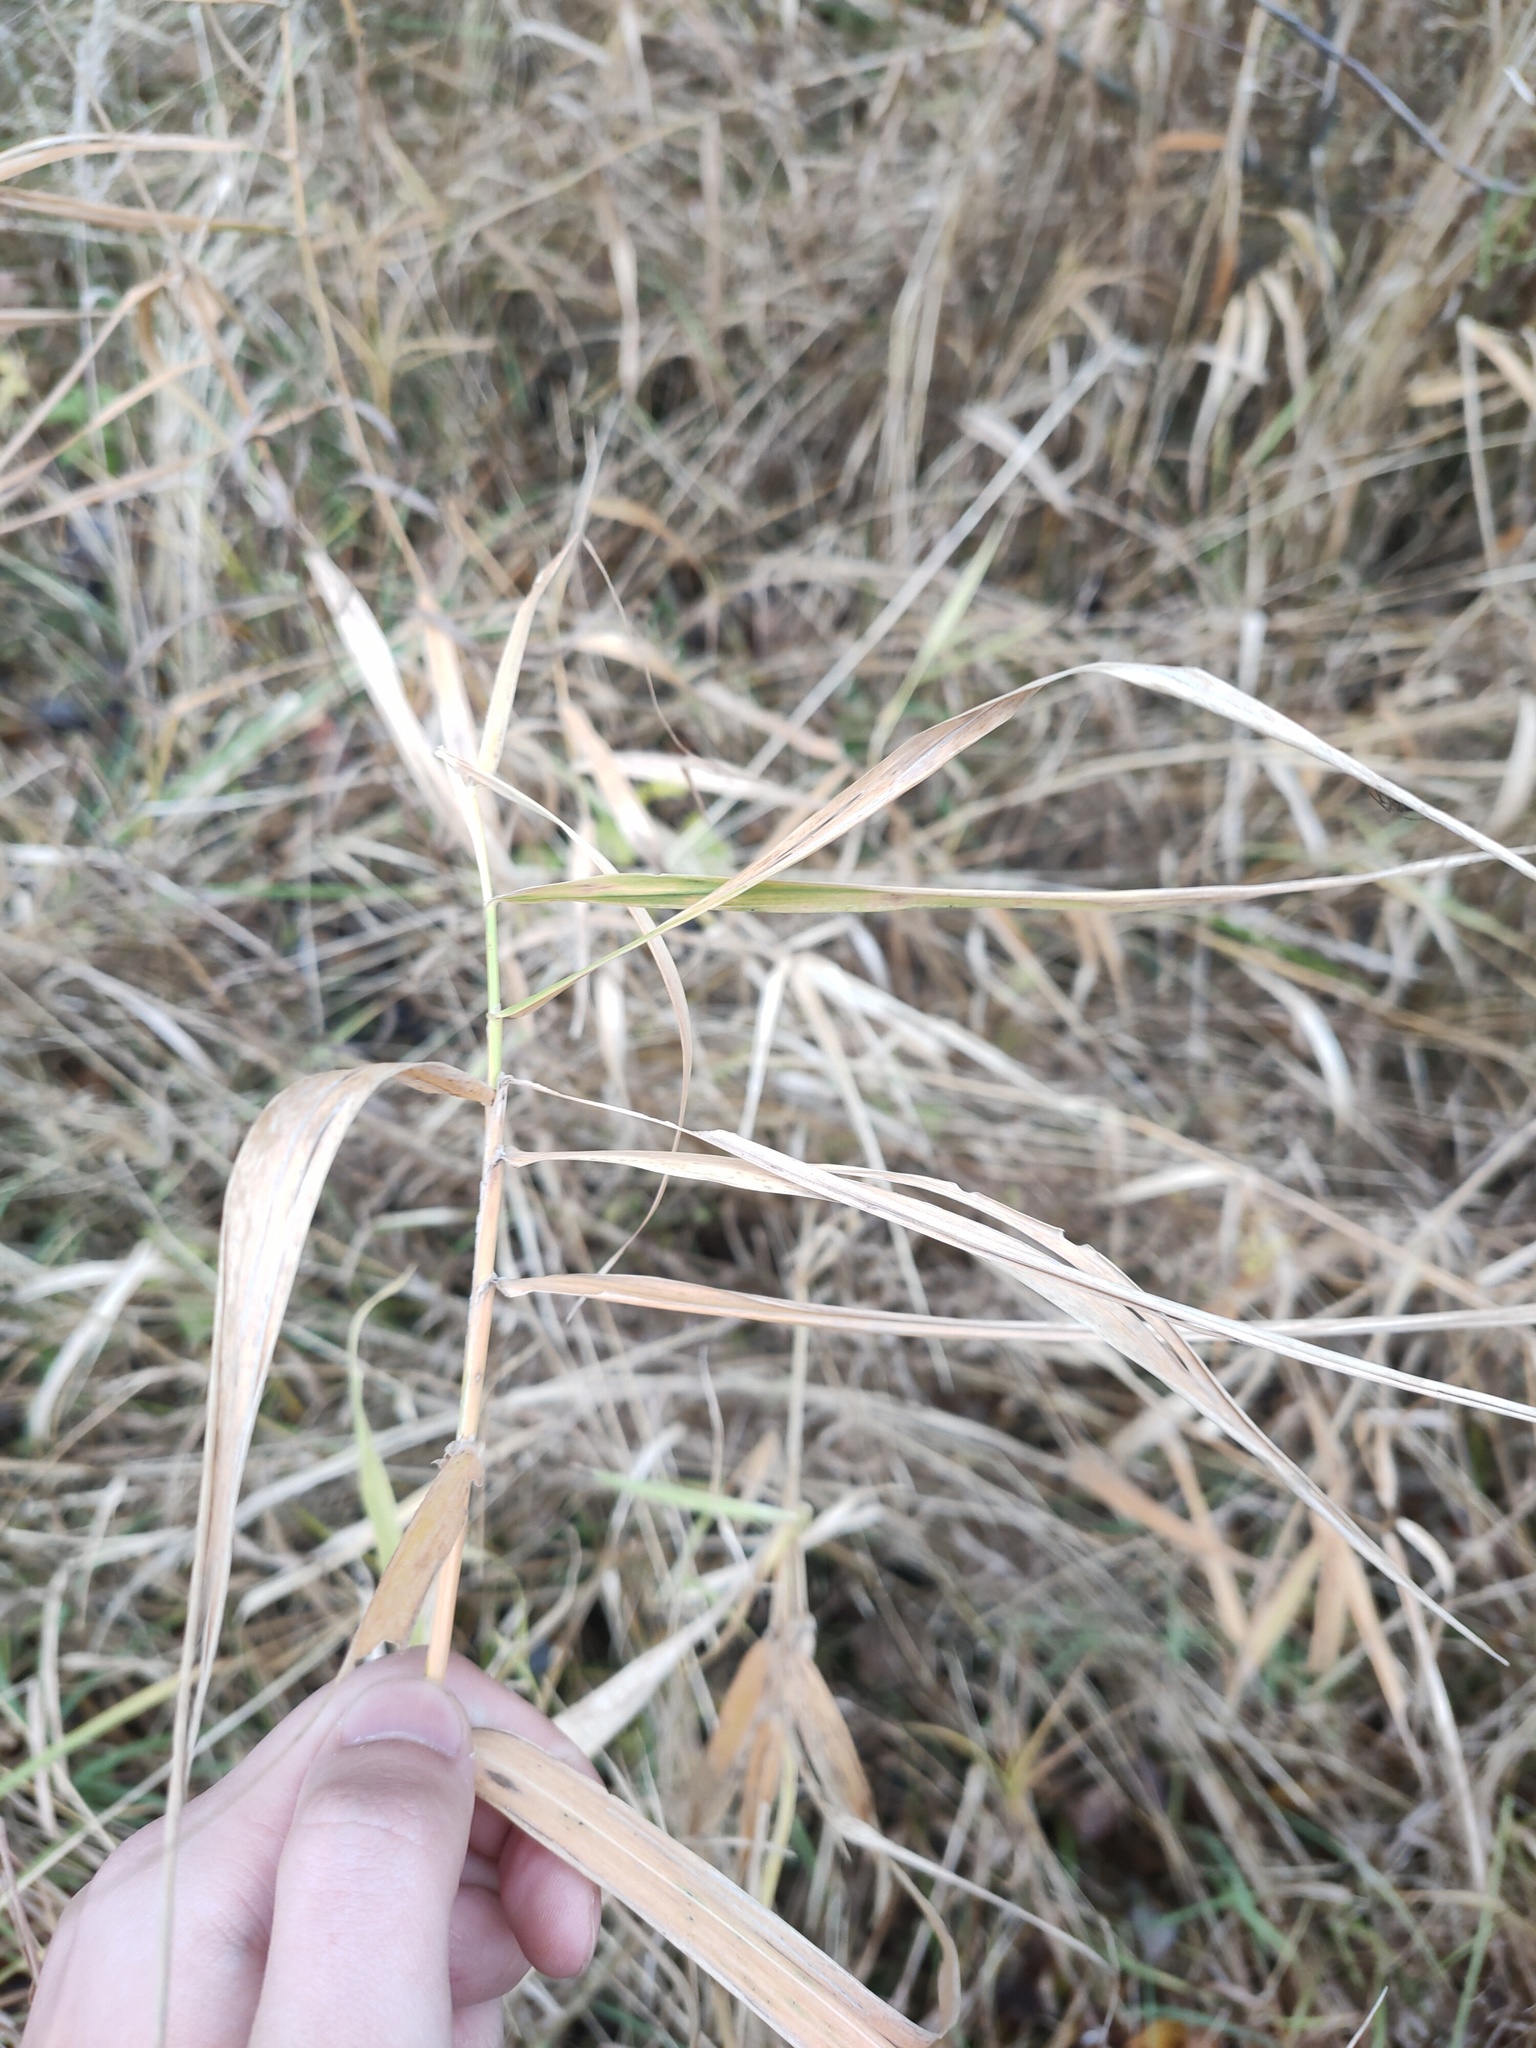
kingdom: Plantae
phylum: Tracheophyta
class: Liliopsida
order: Poales
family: Poaceae
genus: Phragmites
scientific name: Phragmites australis
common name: Common reed
